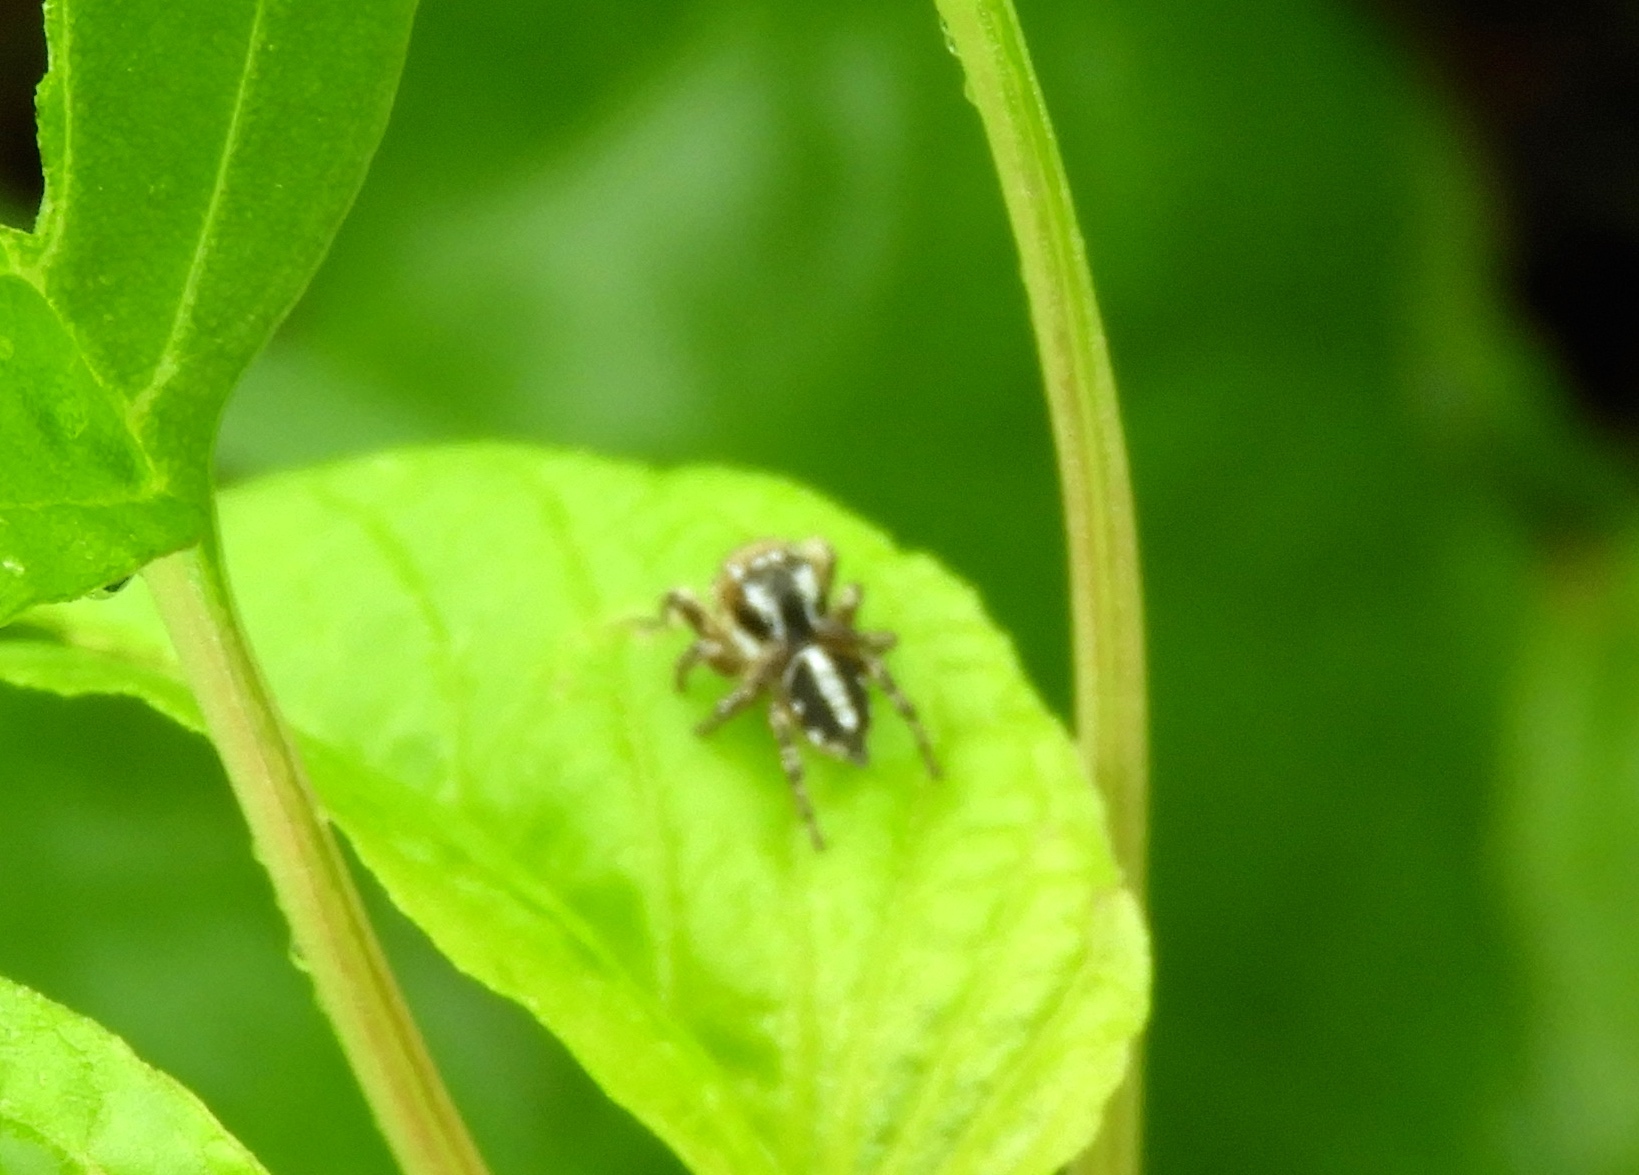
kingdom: Animalia
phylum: Arthropoda
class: Arachnida
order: Araneae
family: Salticidae
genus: Habronattus
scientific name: Habronattus contingens
